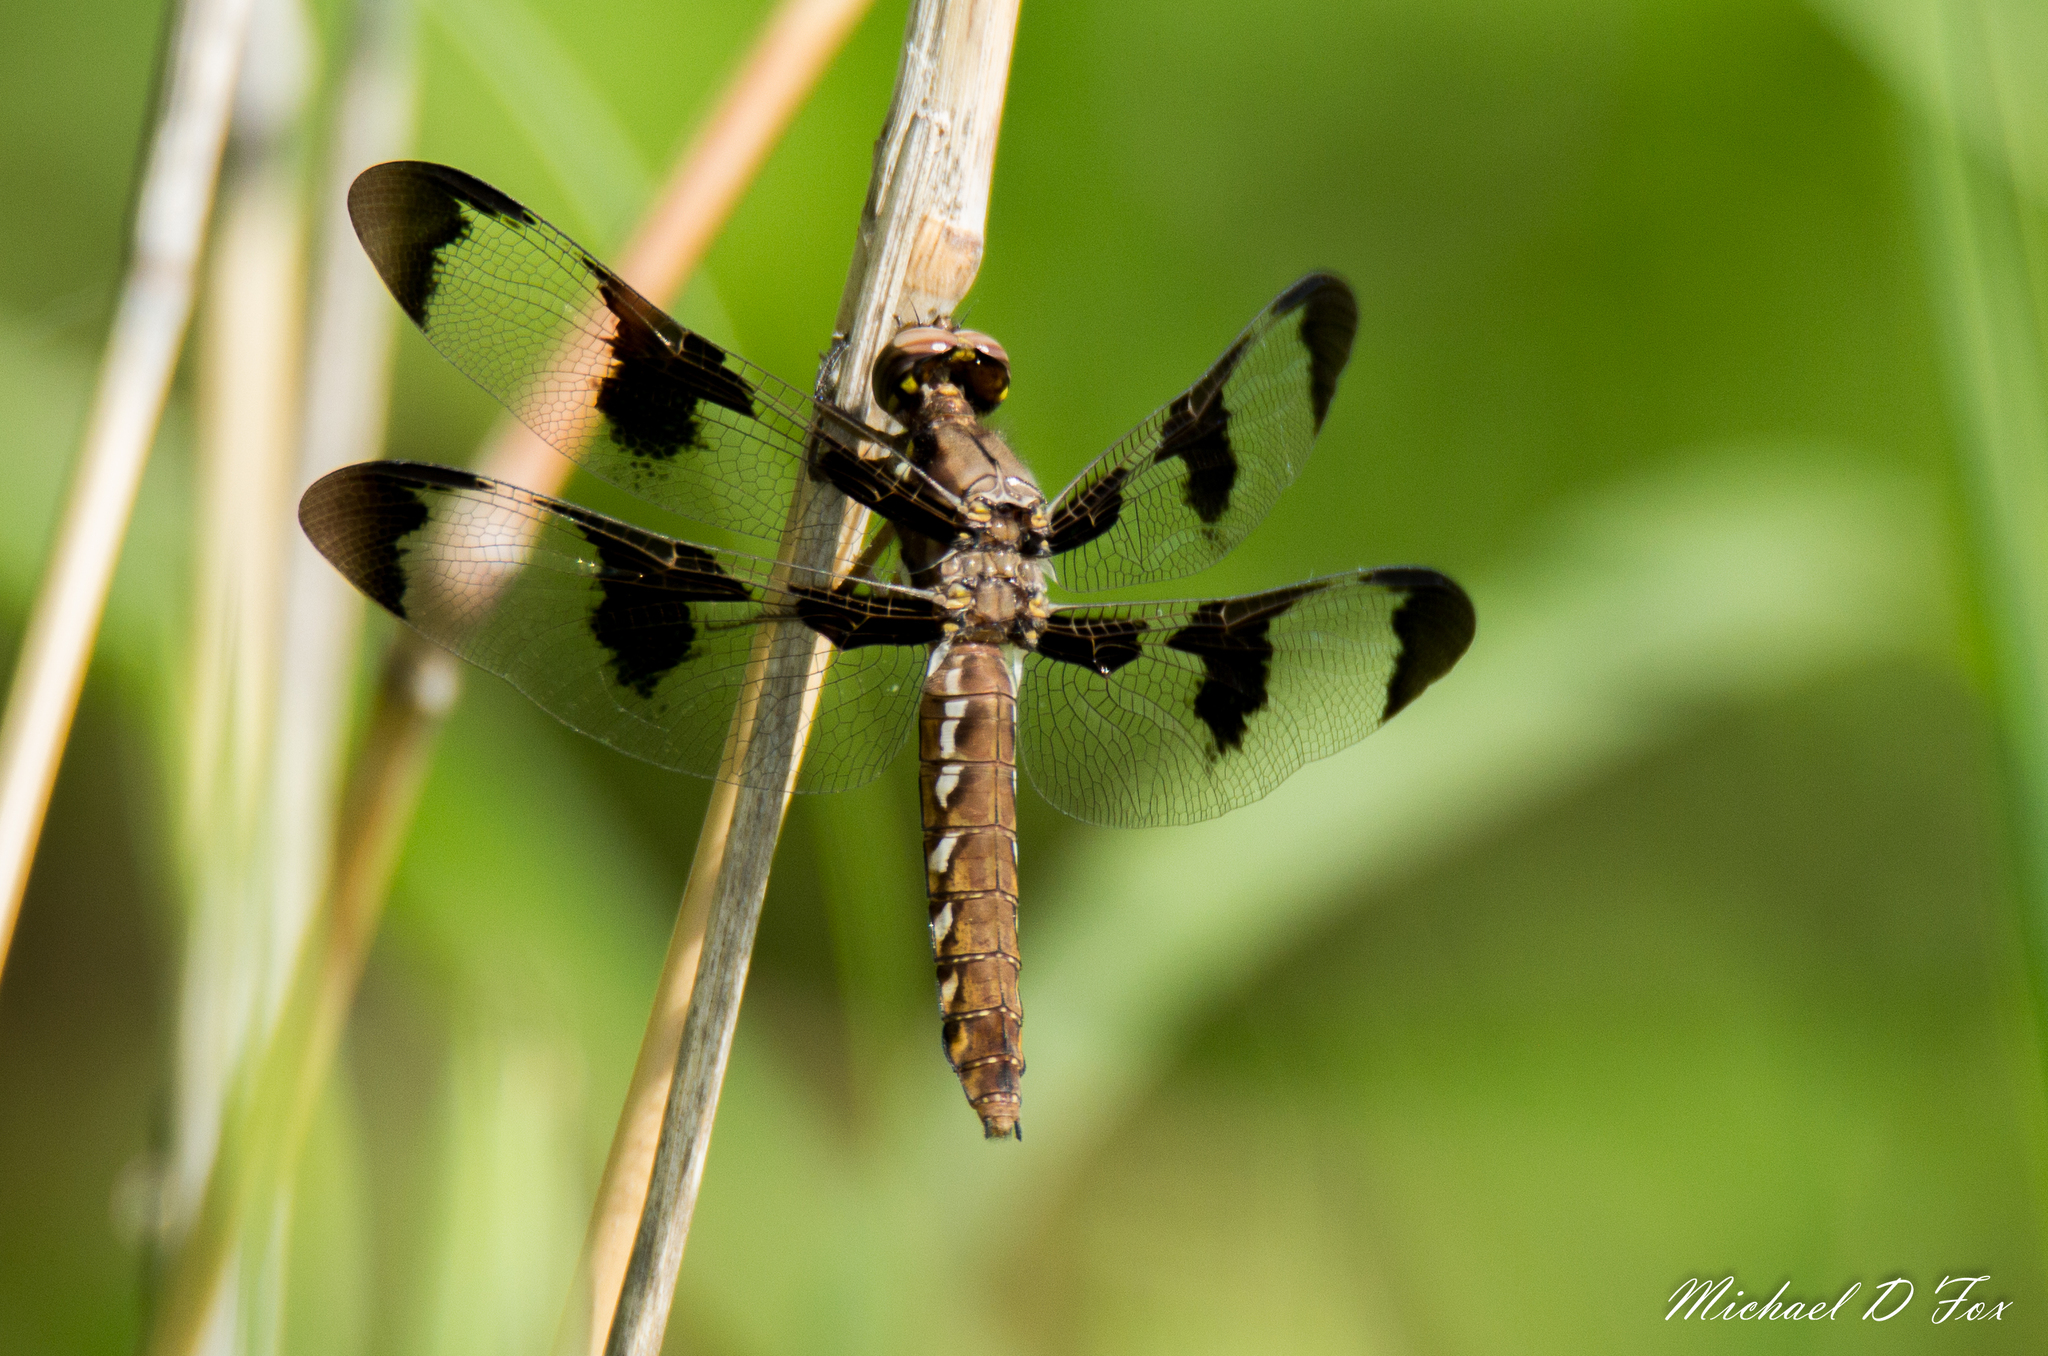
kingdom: Animalia
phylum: Arthropoda
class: Insecta
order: Odonata
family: Libellulidae
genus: Plathemis
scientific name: Plathemis lydia
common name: Common whitetail
